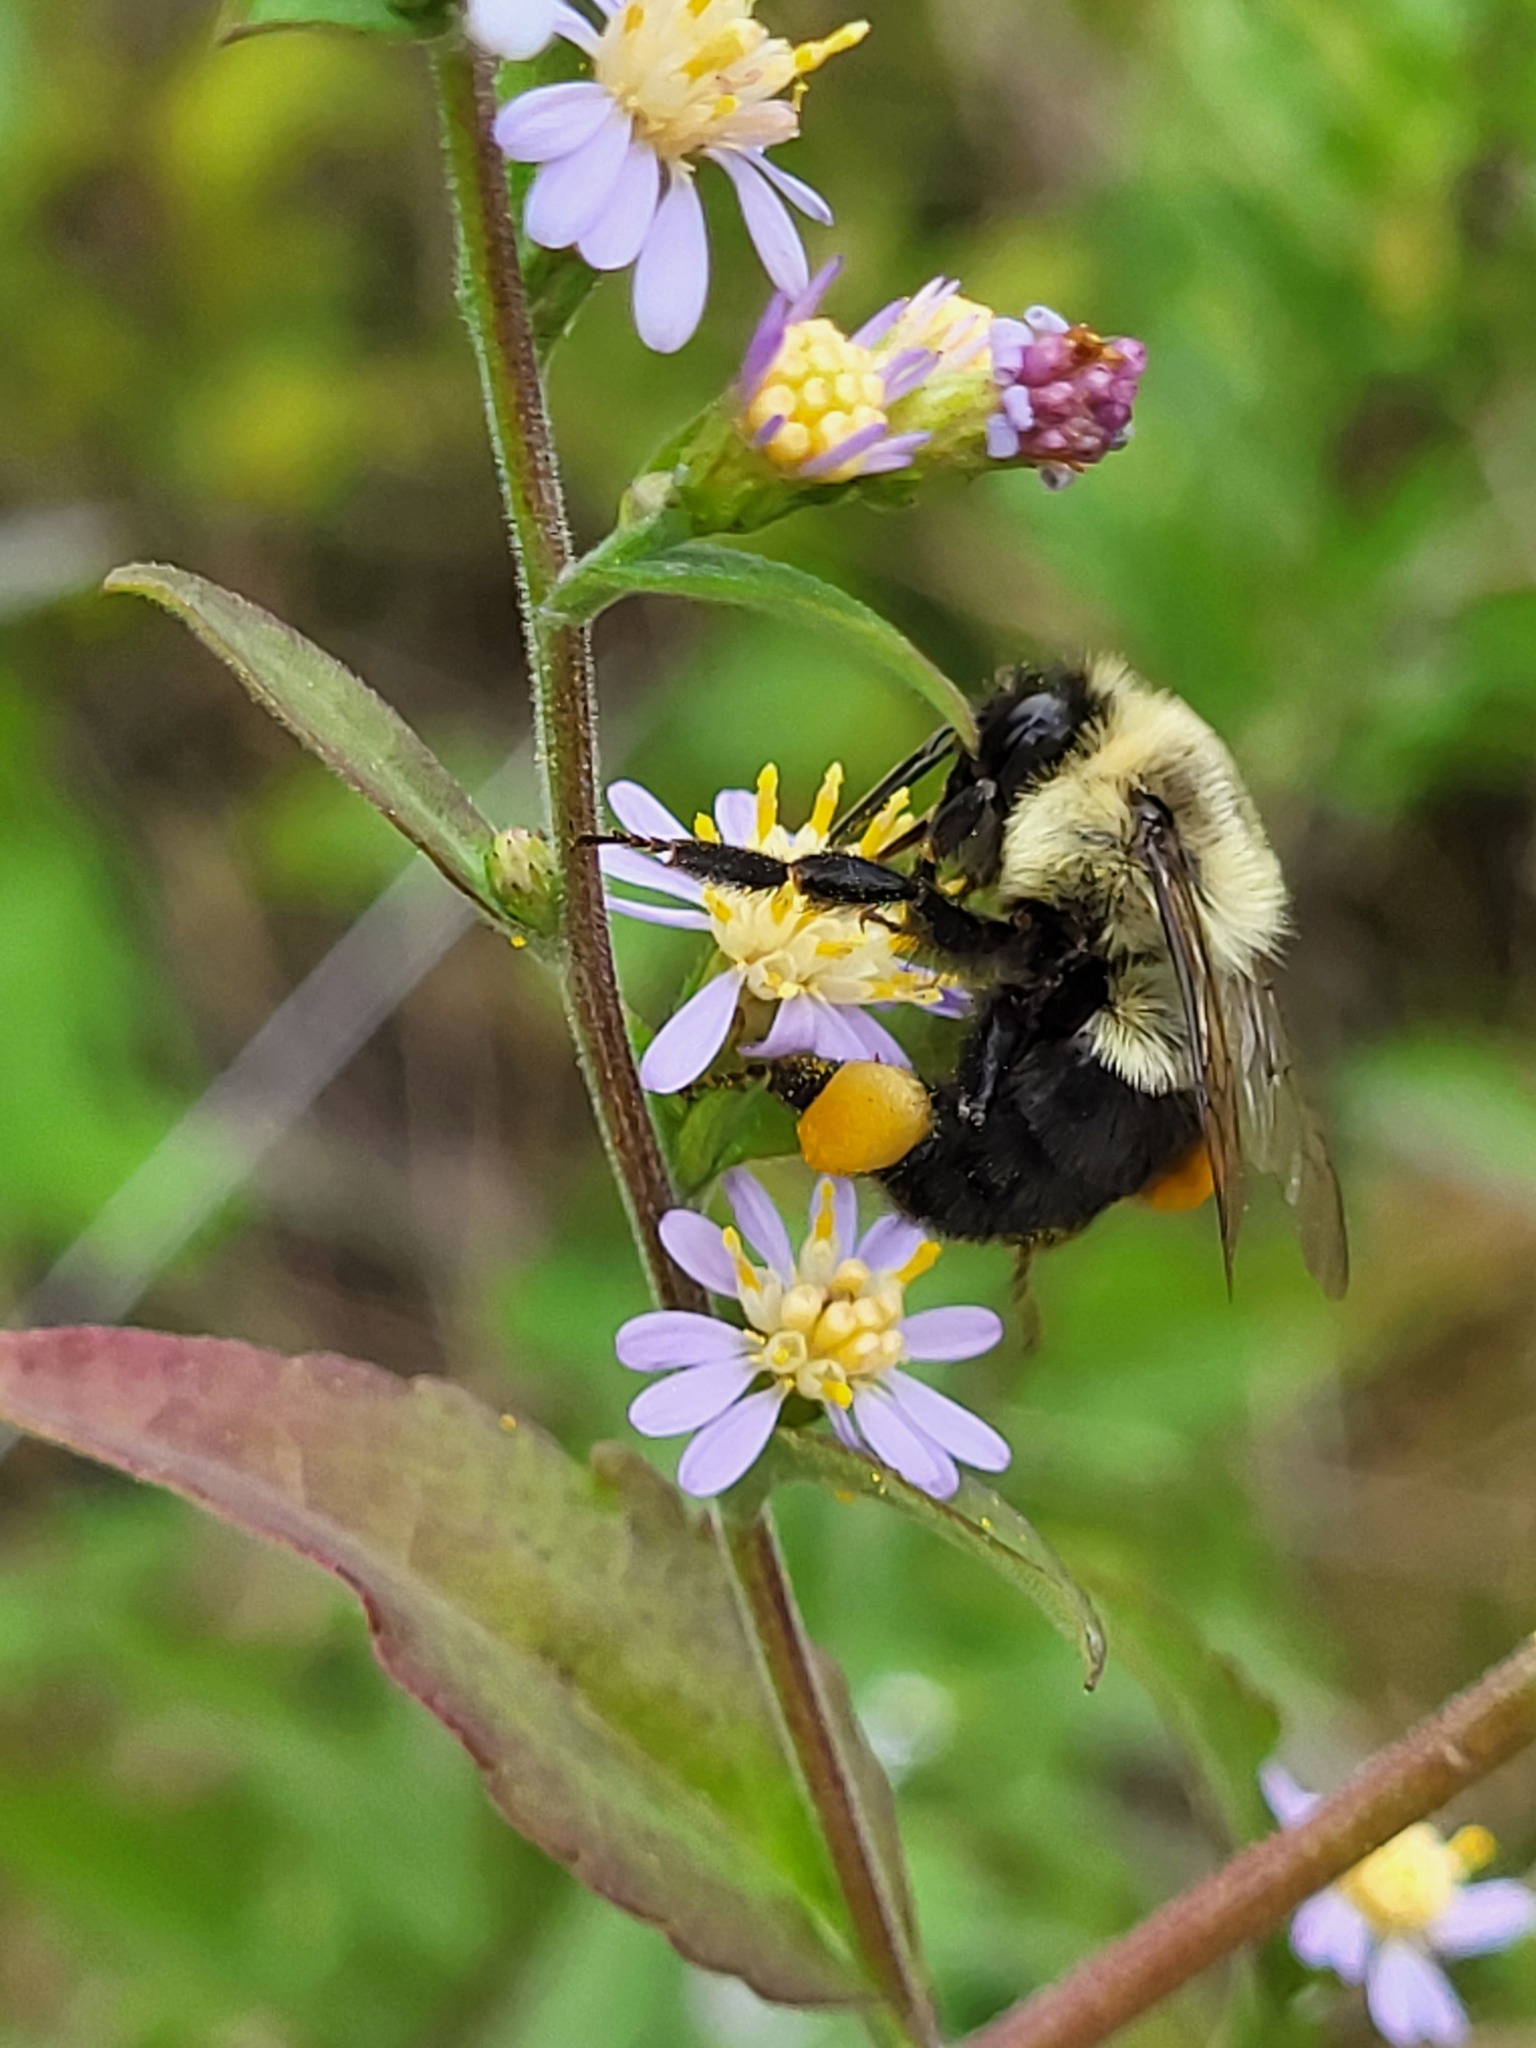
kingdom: Animalia
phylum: Arthropoda
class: Insecta
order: Hymenoptera
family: Apidae
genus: Bombus
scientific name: Bombus impatiens
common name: Common eastern bumble bee
